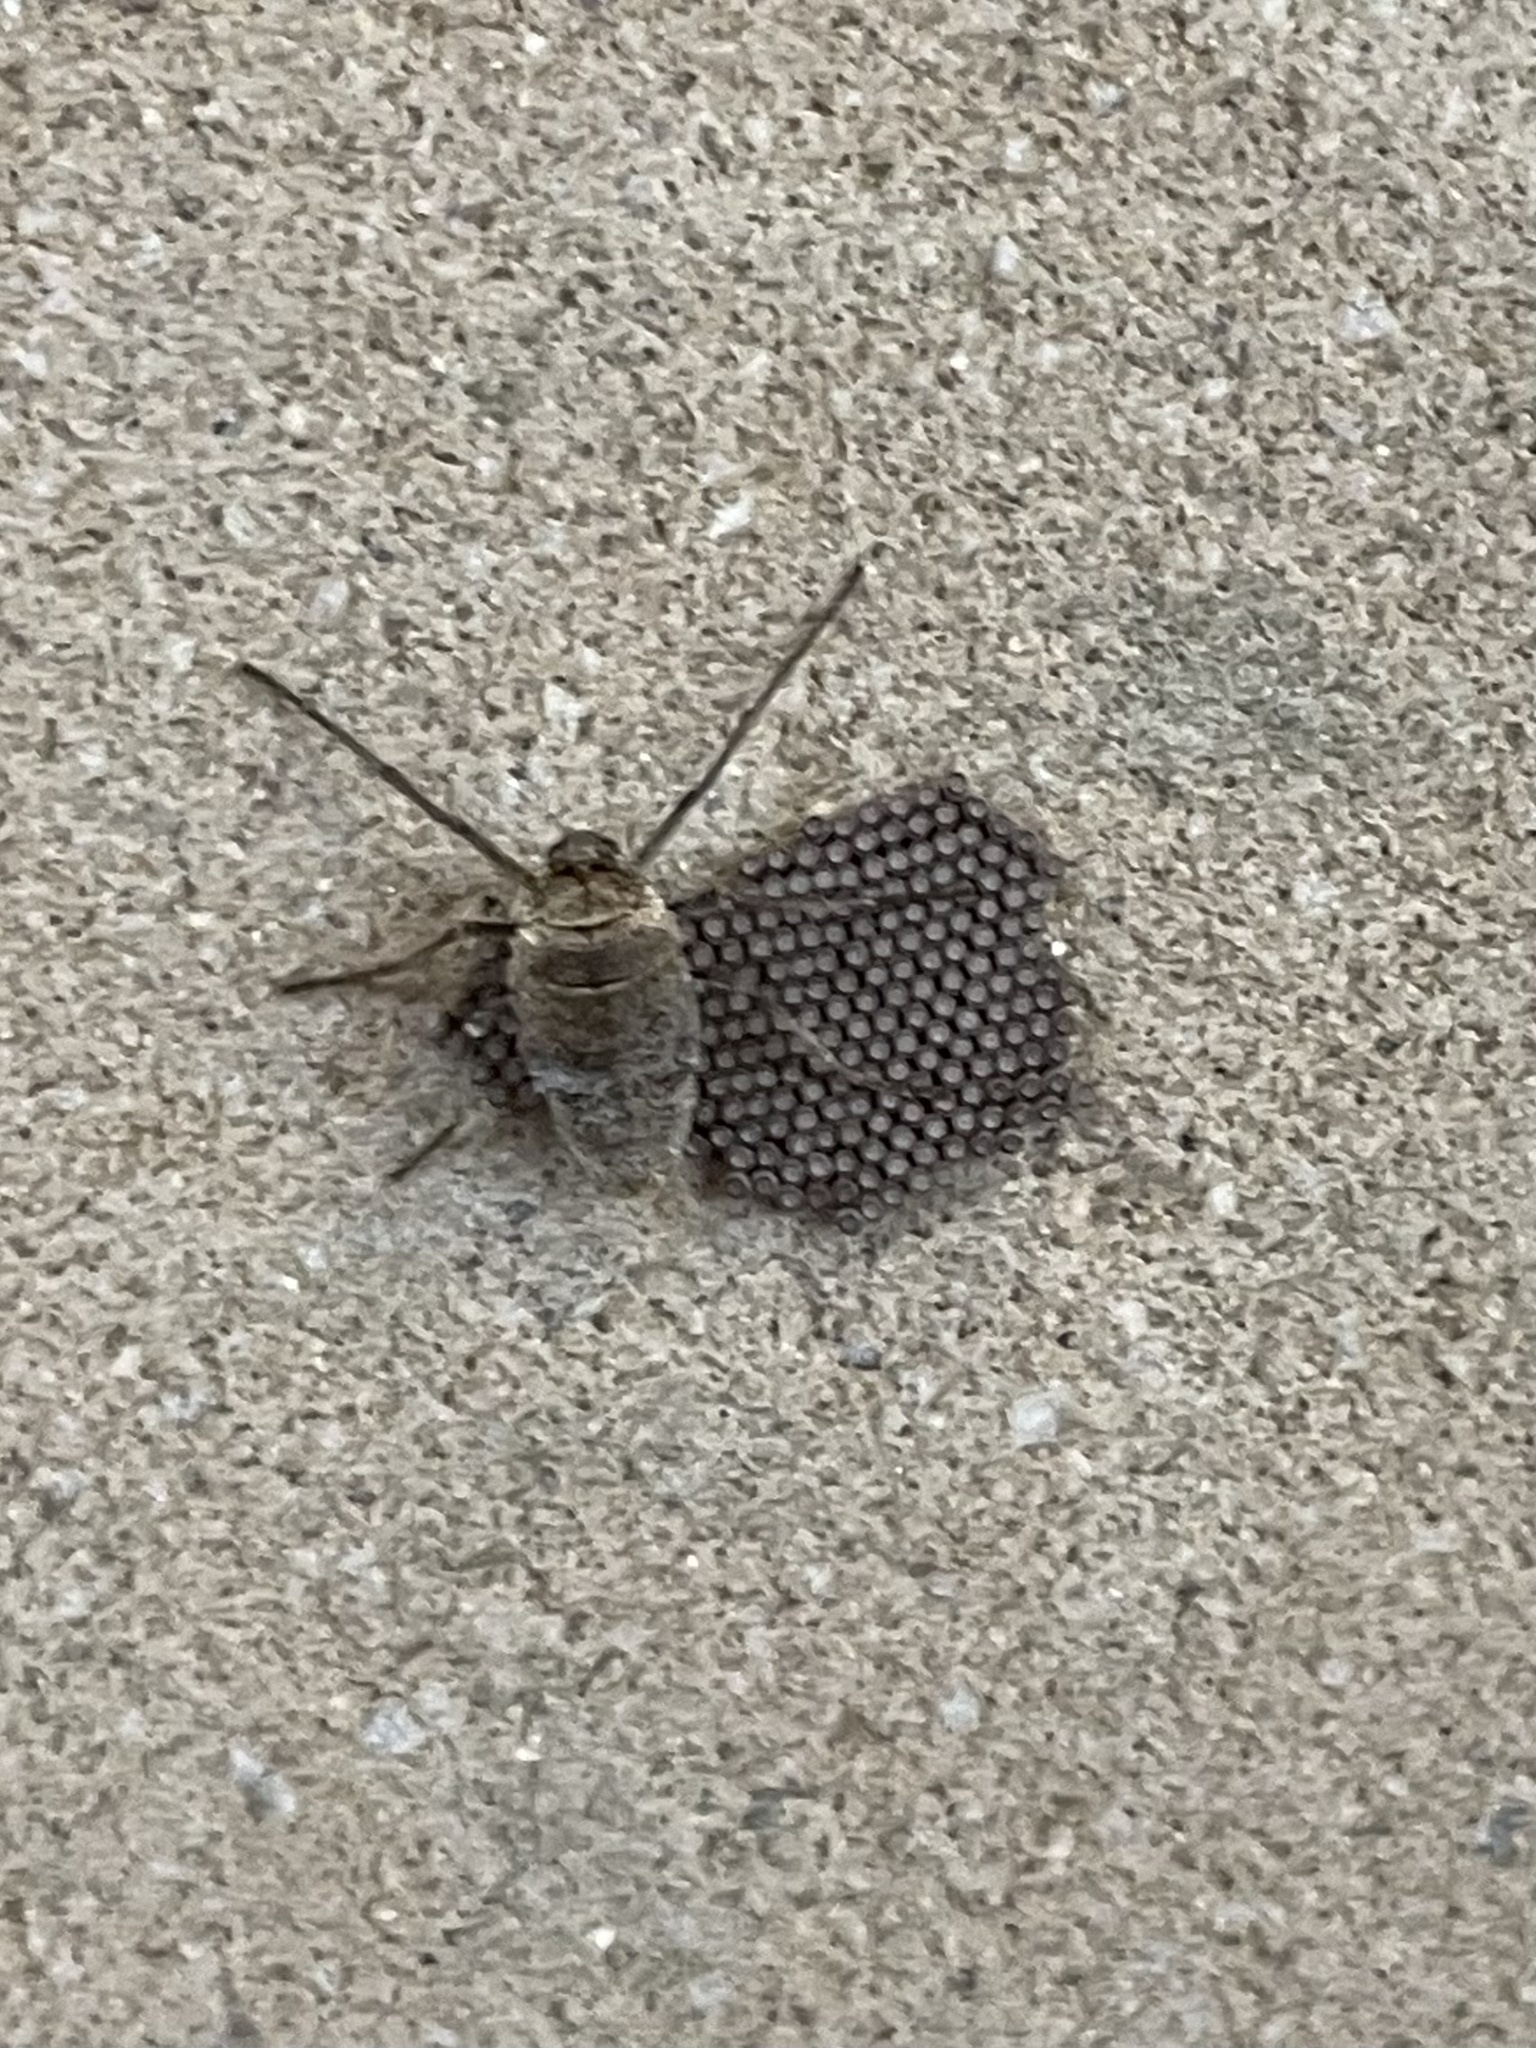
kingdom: Animalia
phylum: Arthropoda
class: Insecta
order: Lepidoptera
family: Geometridae
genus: Alsophila
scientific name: Alsophila pometaria
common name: Fall cankerworm
